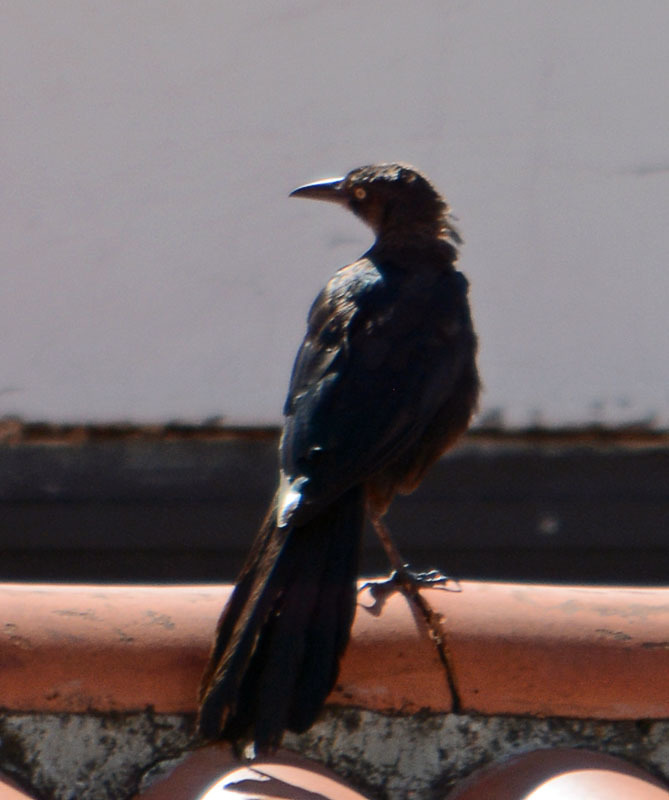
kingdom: Animalia
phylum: Chordata
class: Aves
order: Passeriformes
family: Icteridae
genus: Quiscalus
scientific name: Quiscalus mexicanus
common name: Great-tailed grackle
